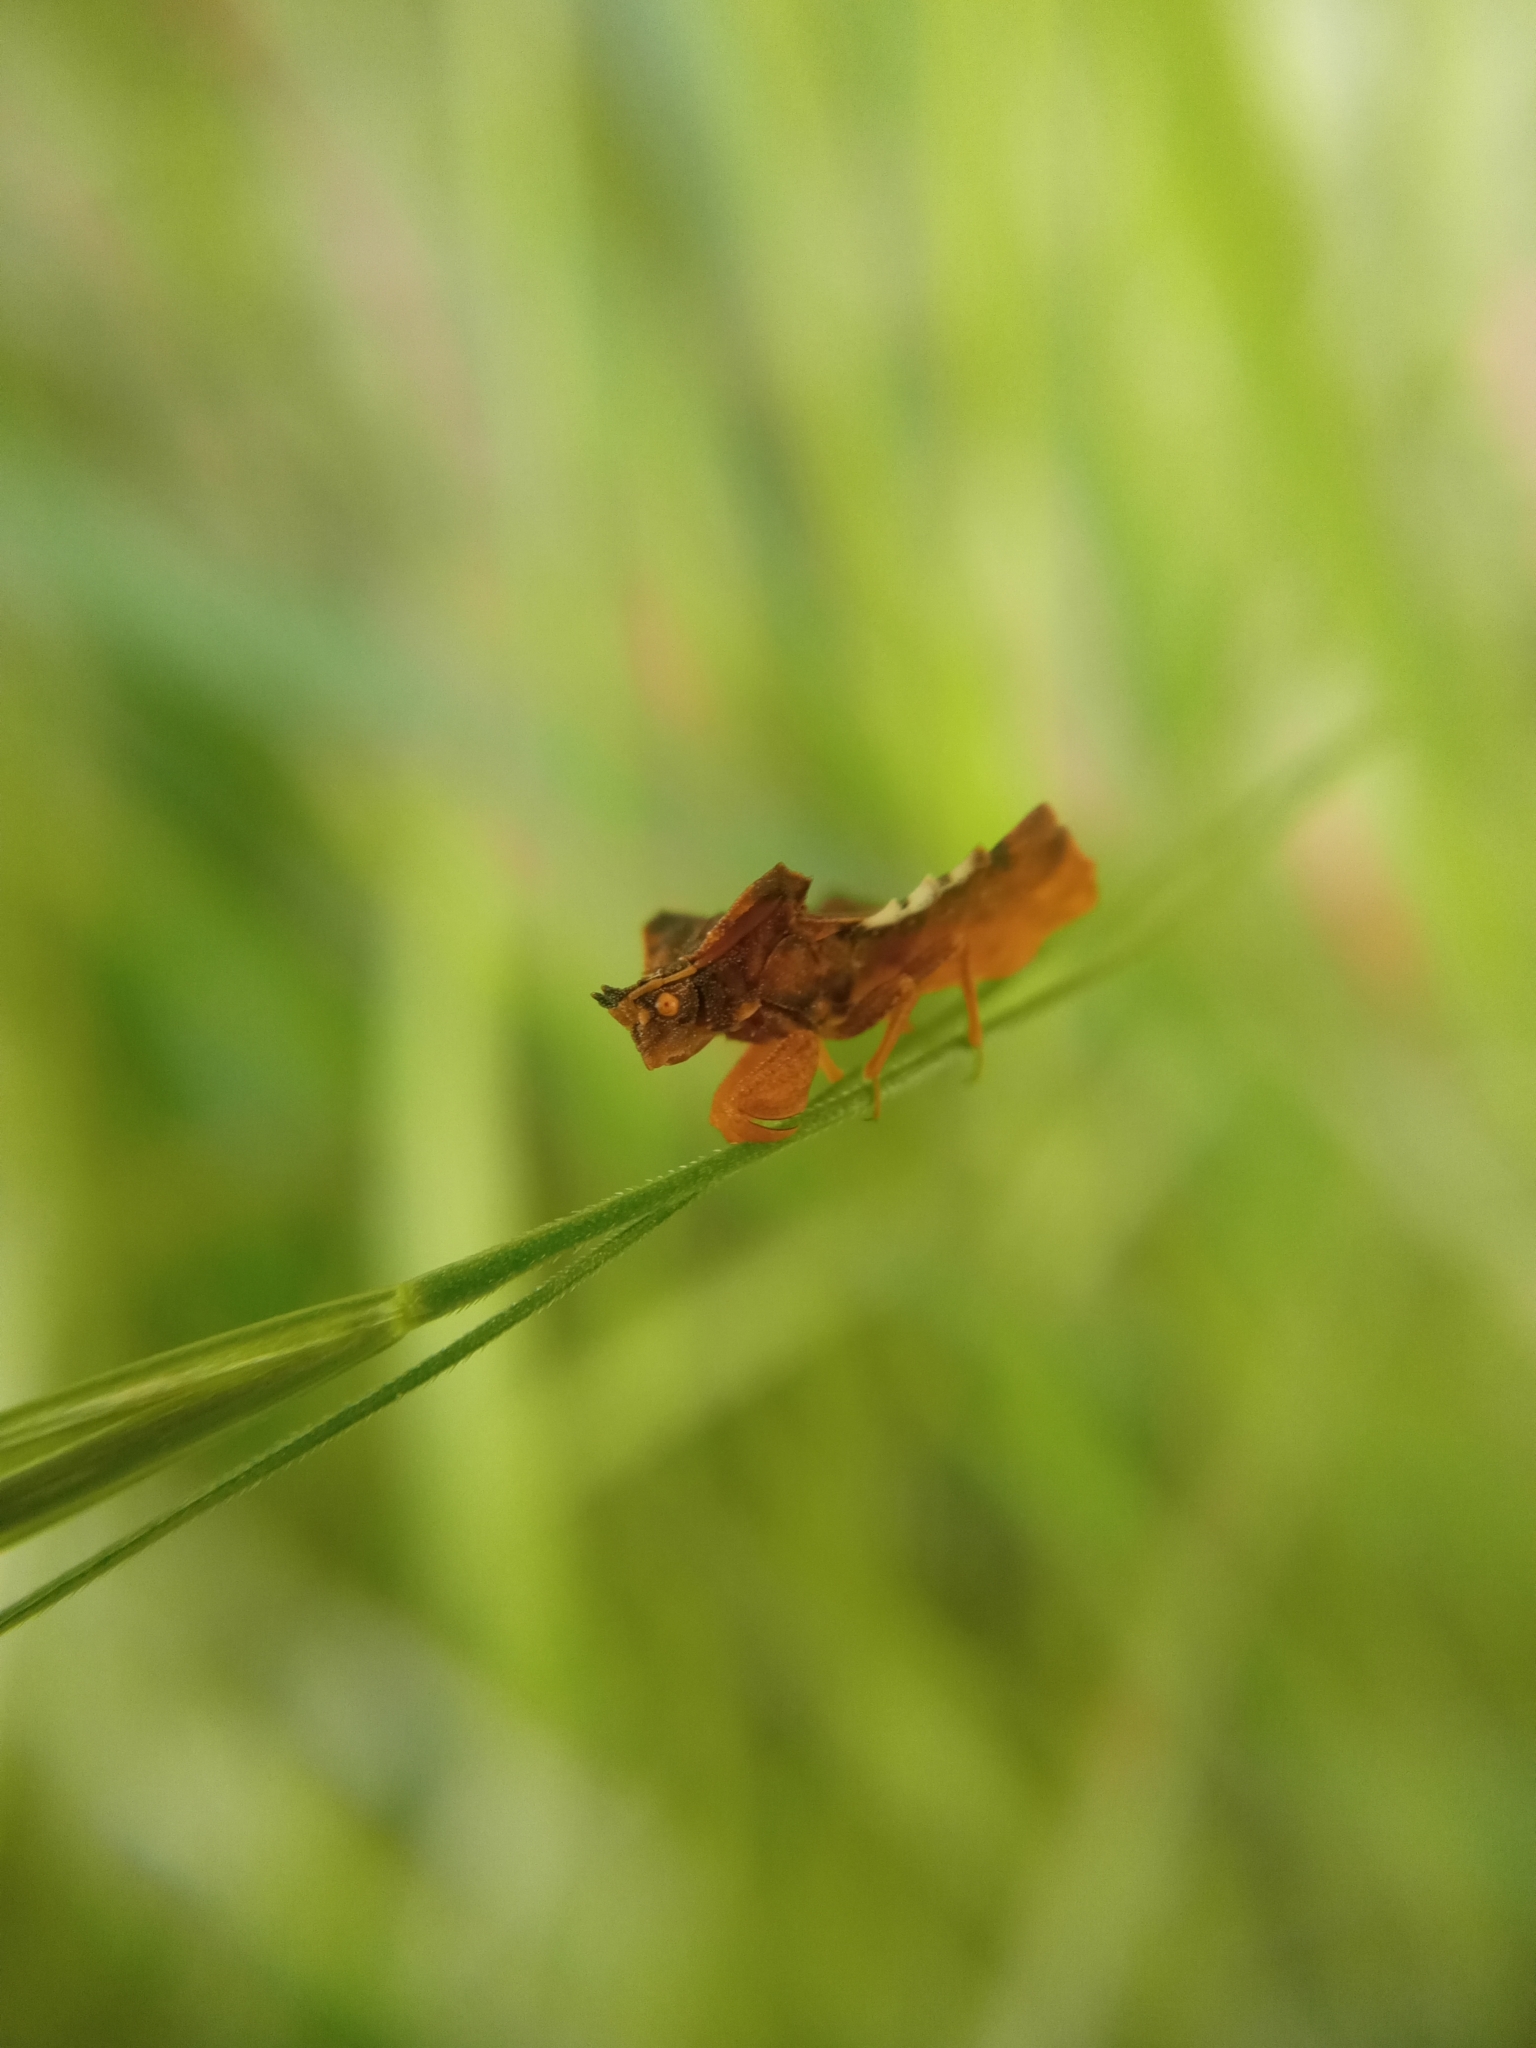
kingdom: Animalia
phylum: Arthropoda
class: Insecta
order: Hemiptera
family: Reduviidae
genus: Phymata
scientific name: Phymata crassipes
